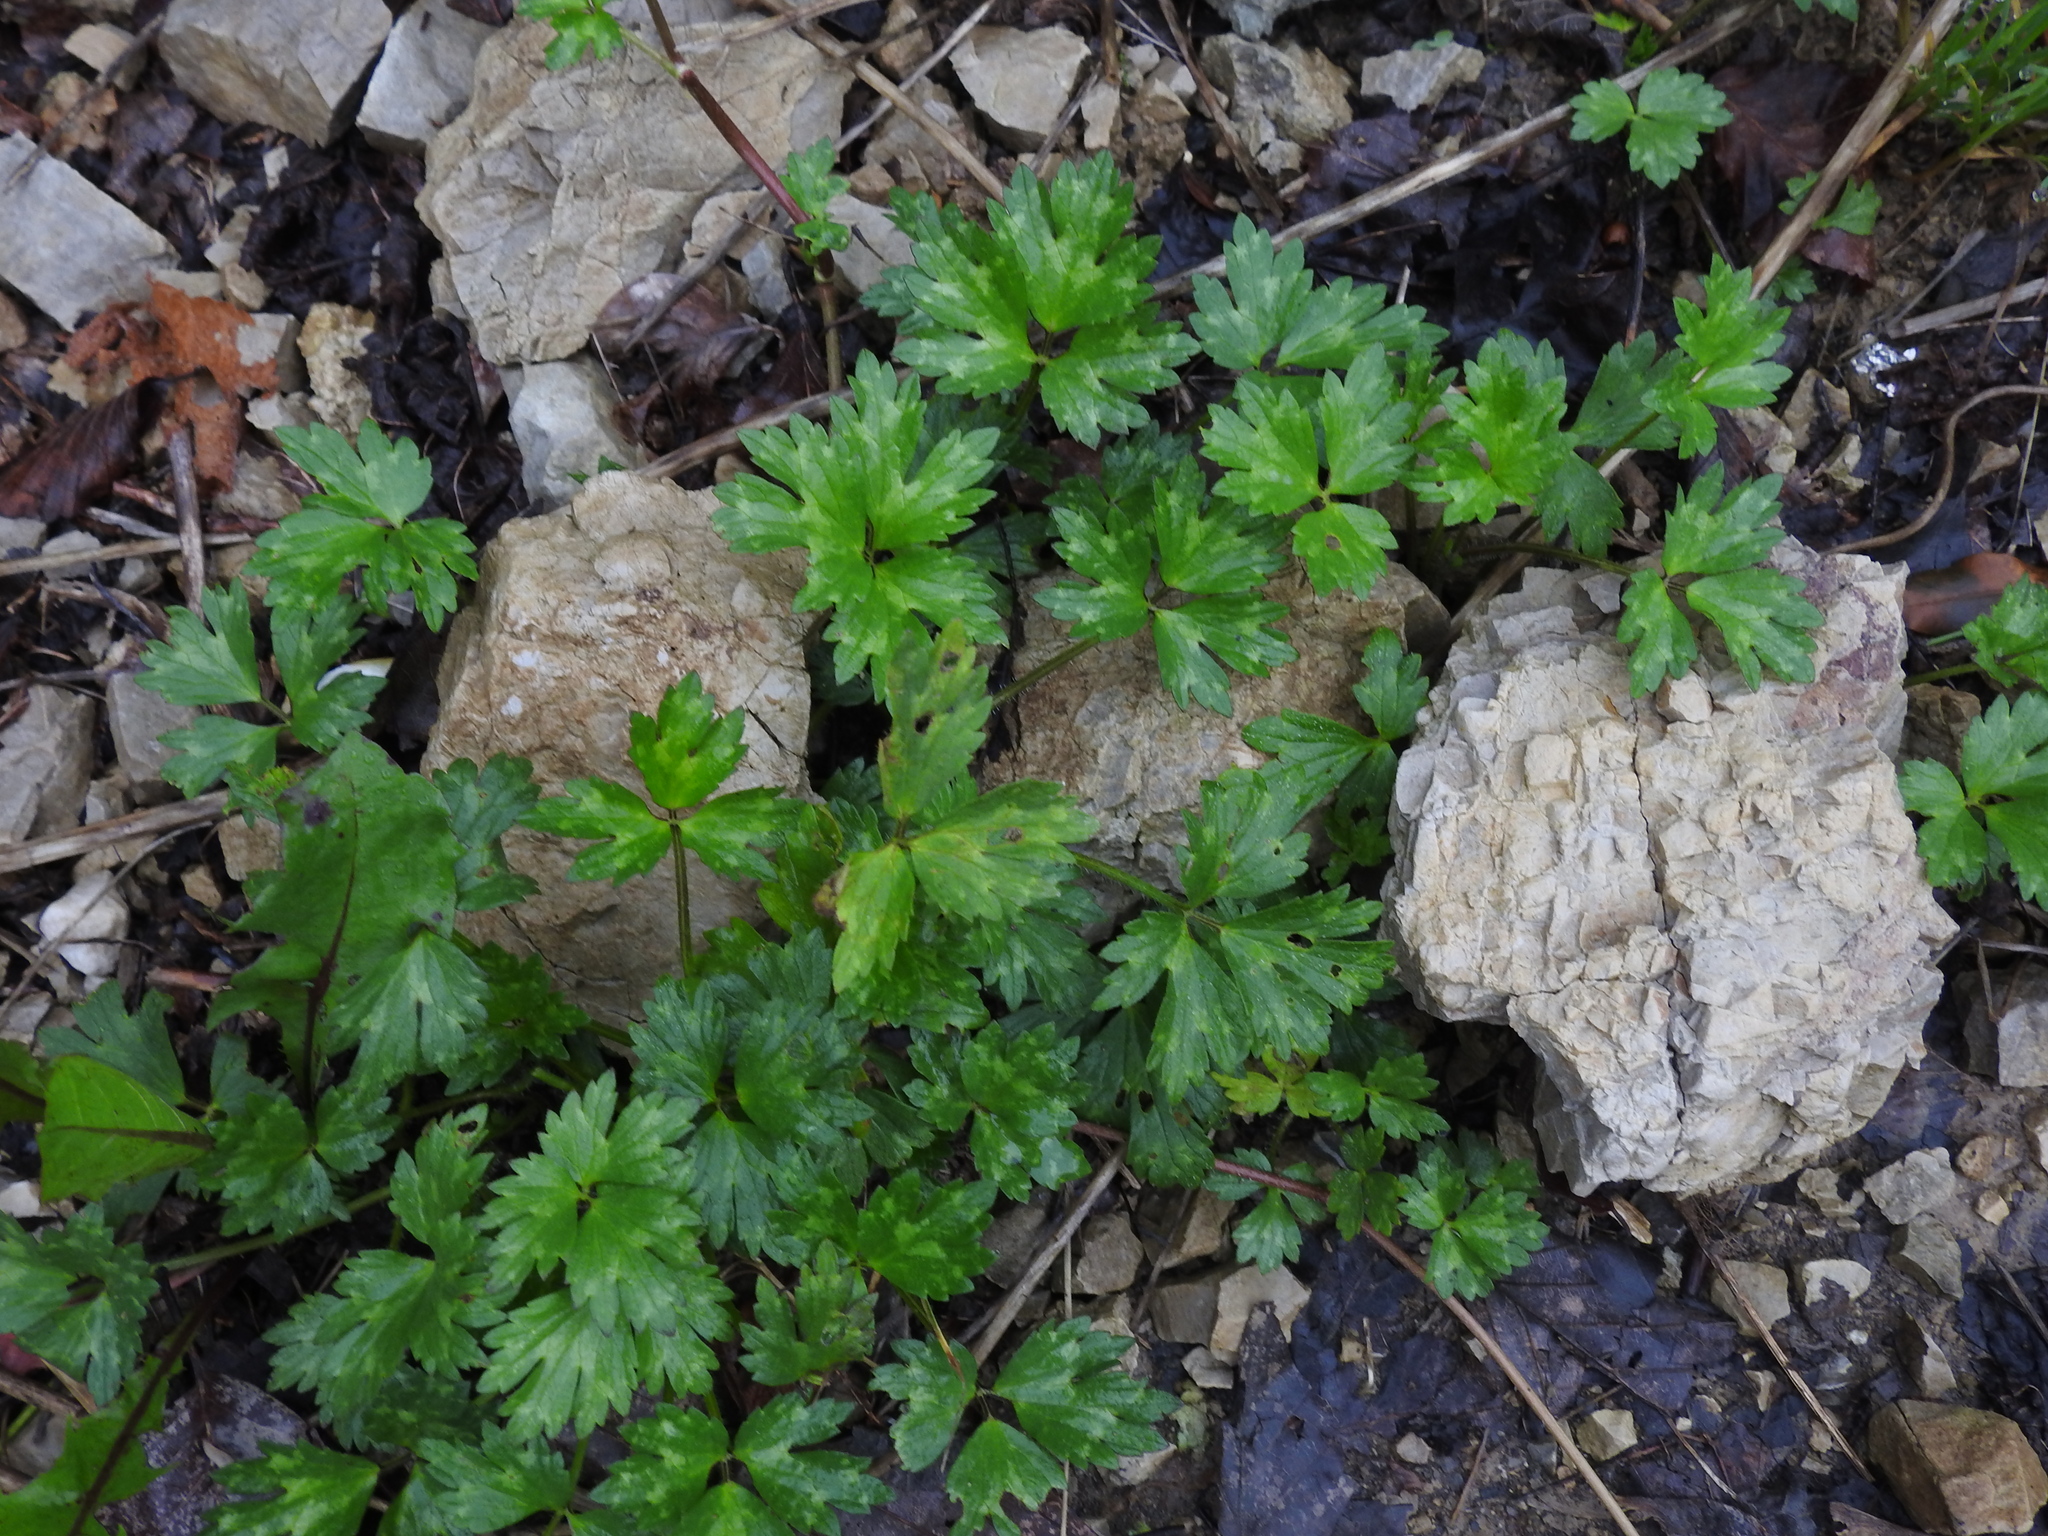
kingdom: Plantae
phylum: Tracheophyta
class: Magnoliopsida
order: Ranunculales
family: Ranunculaceae
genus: Ranunculus
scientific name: Ranunculus repens
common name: Creeping buttercup
